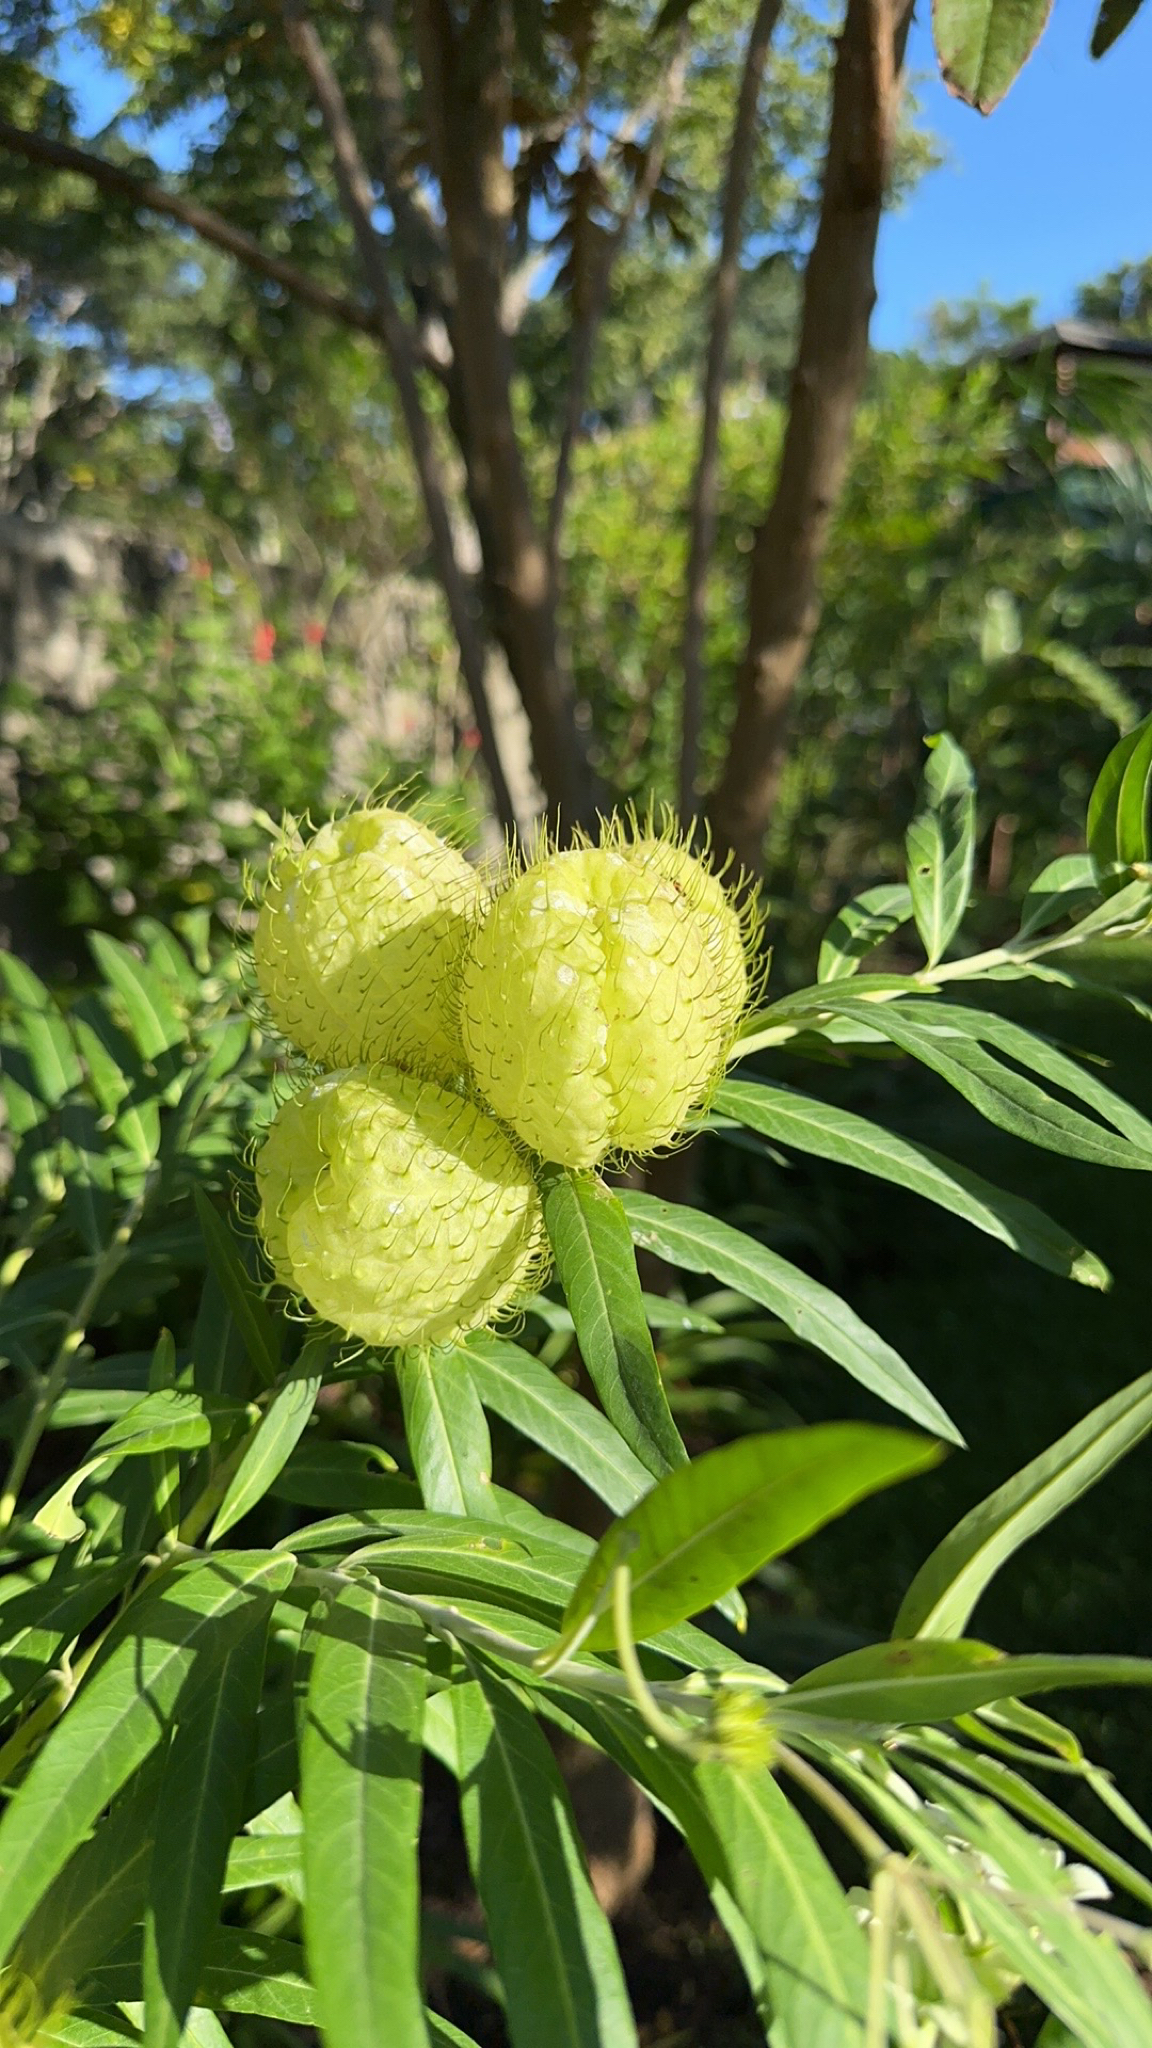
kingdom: Plantae
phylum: Tracheophyta
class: Magnoliopsida
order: Gentianales
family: Apocynaceae
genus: Gomphocarpus
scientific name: Gomphocarpus physocarpus
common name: Balloon cotton bush
